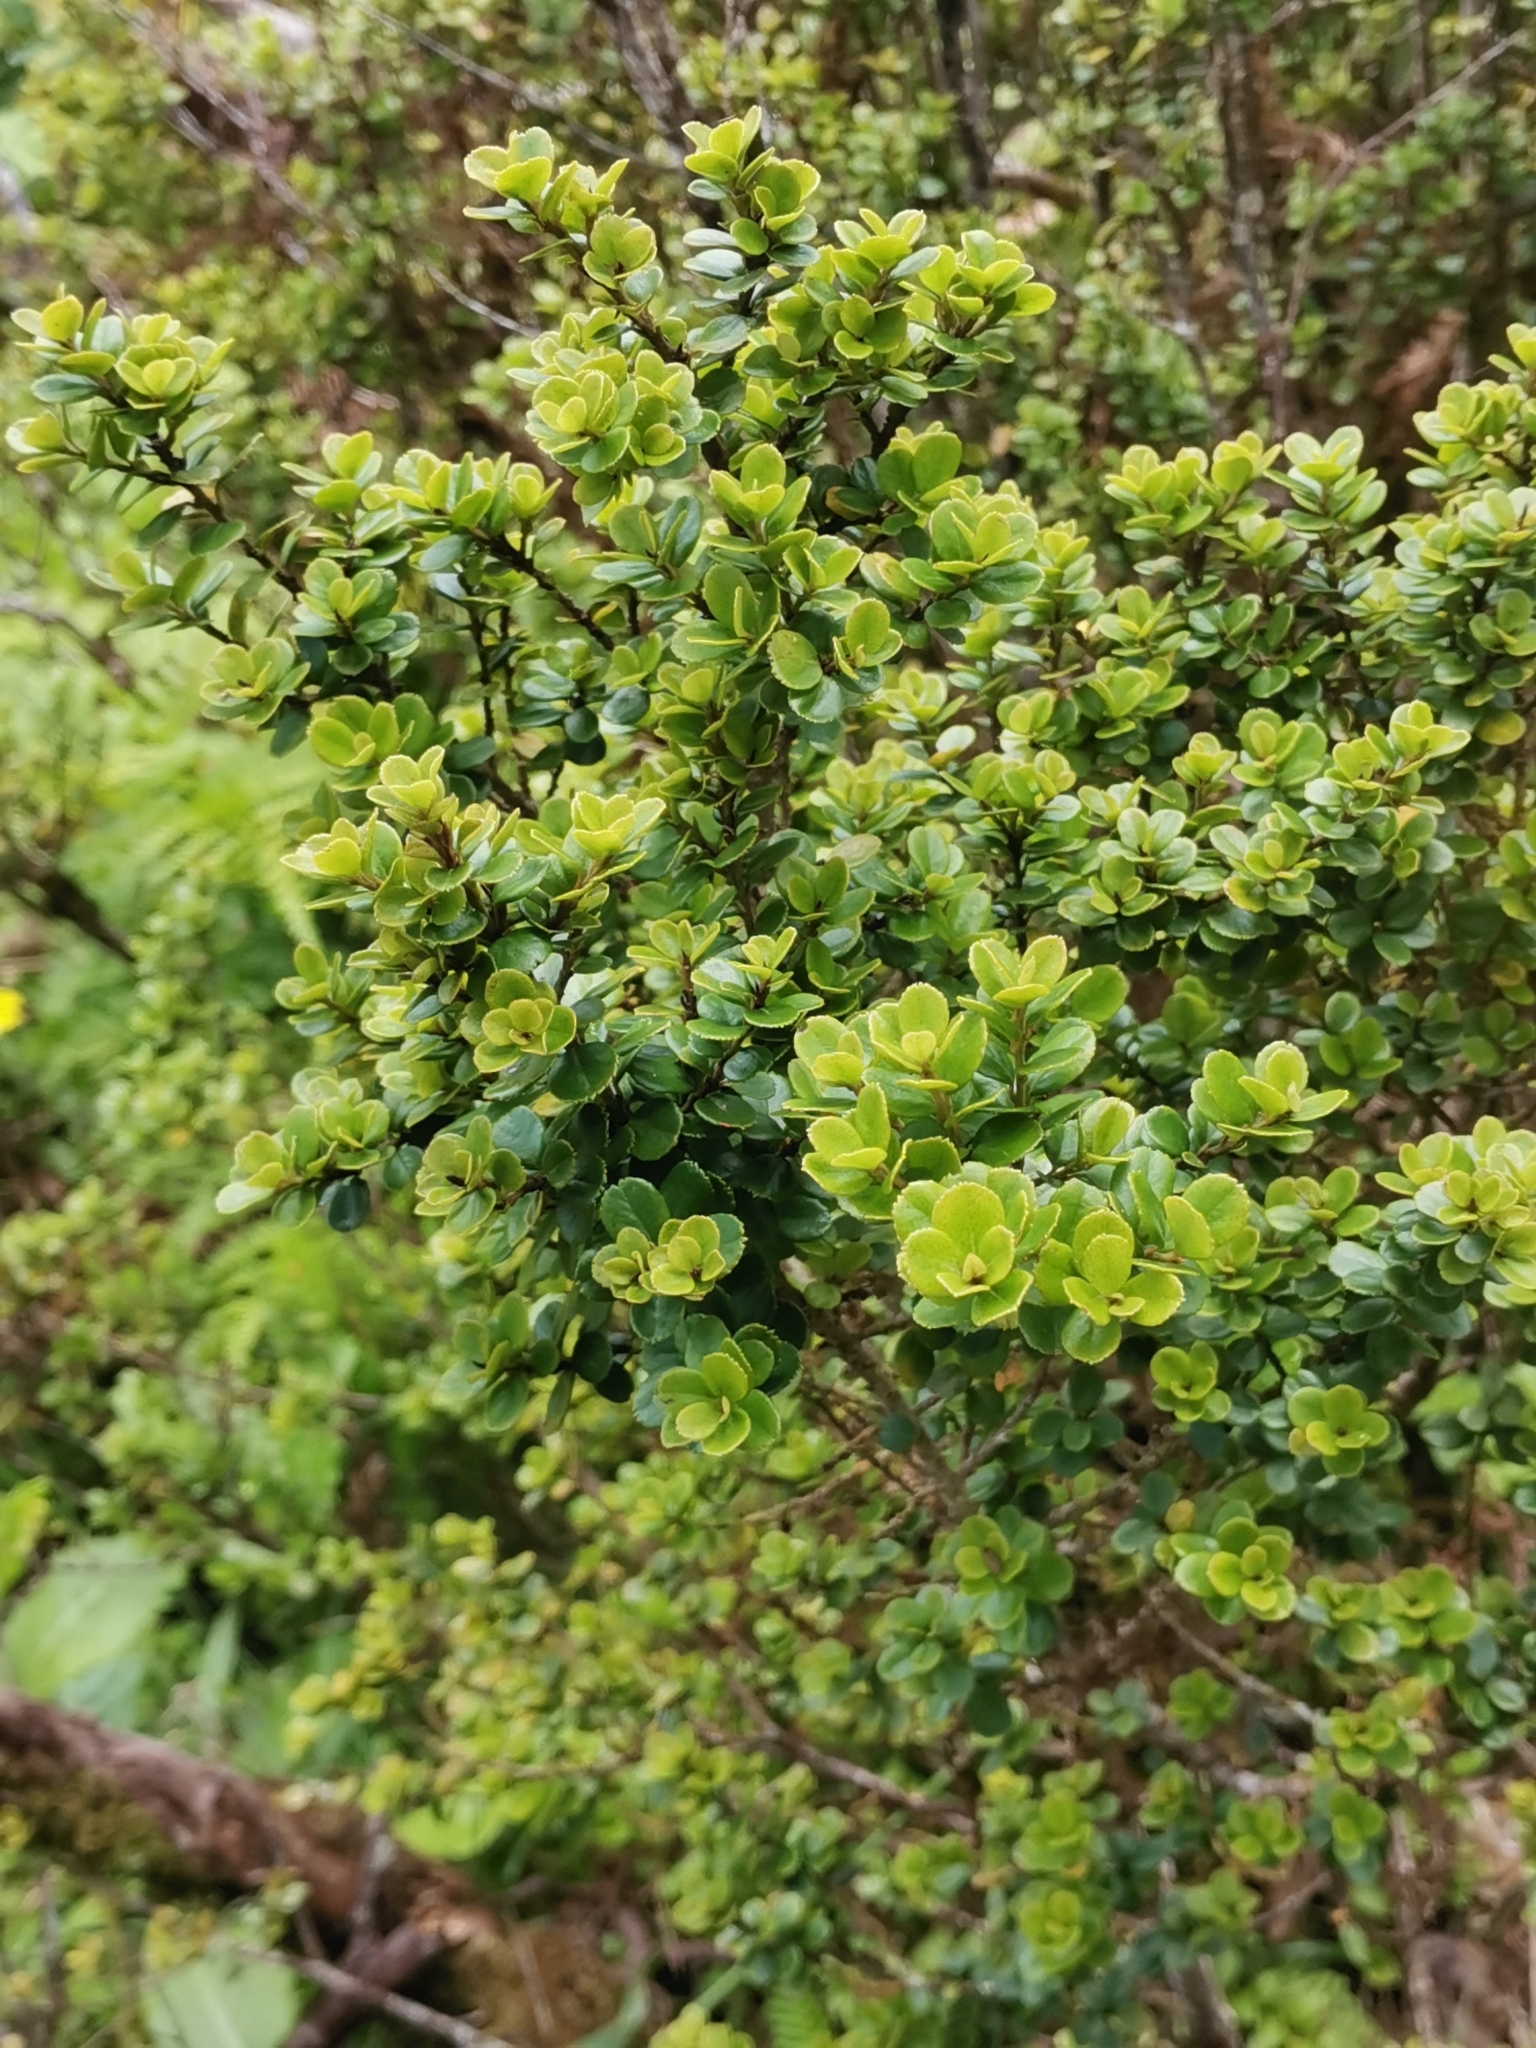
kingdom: Plantae
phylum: Tracheophyta
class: Magnoliopsida
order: Ericales
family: Primulaceae
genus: Myrsine
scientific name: Myrsine africana
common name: African-boxwood
